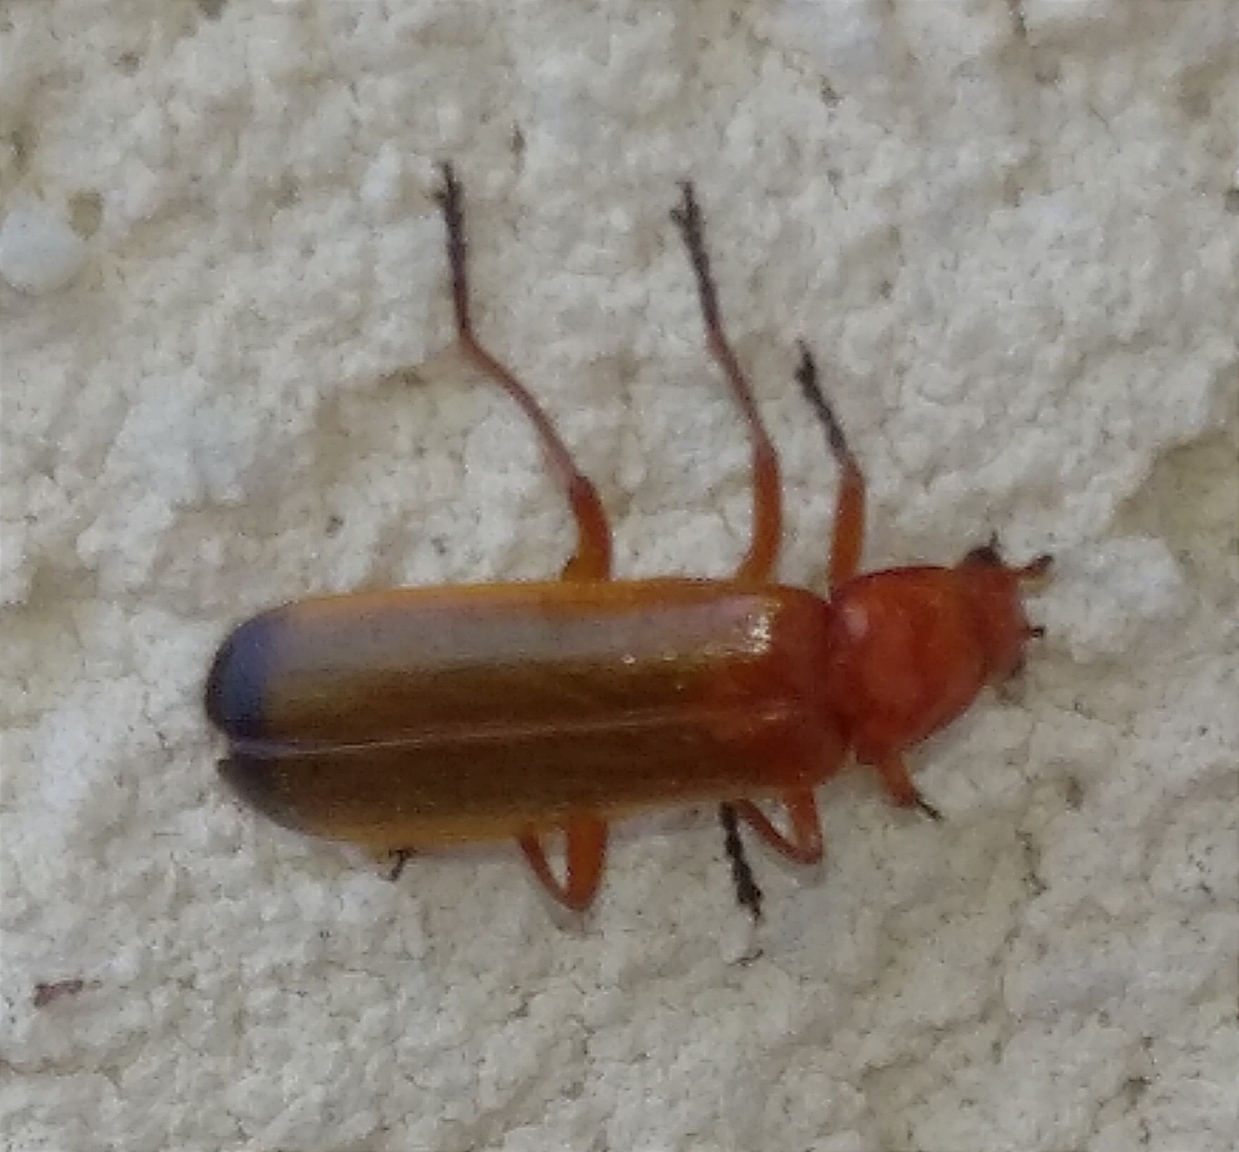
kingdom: Animalia
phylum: Arthropoda
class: Insecta
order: Coleoptera
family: Cantharidae
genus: Rhagonycha
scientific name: Rhagonycha fulva
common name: Common red soldier beetle
